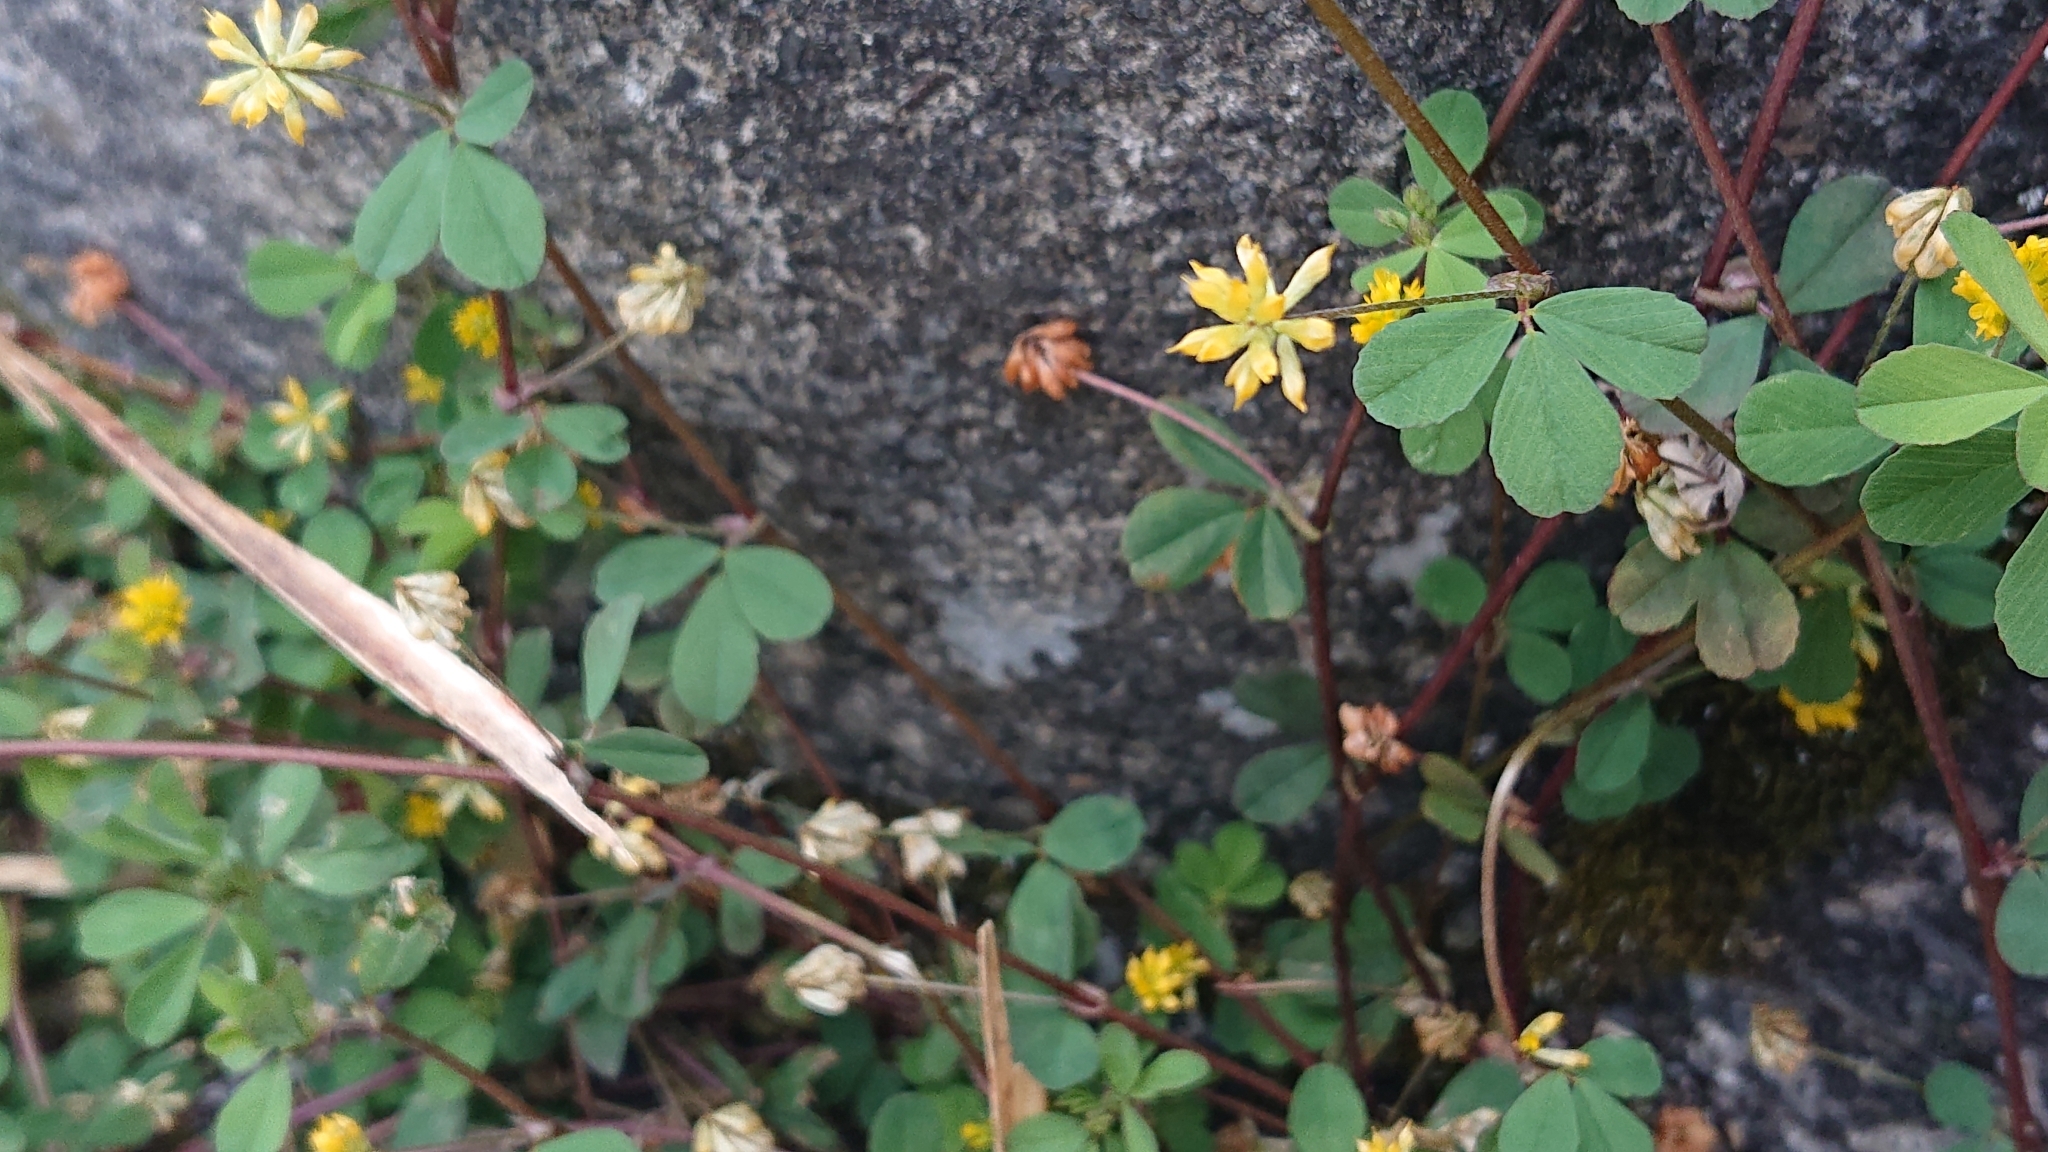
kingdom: Plantae
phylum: Tracheophyta
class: Magnoliopsida
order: Fabales
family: Fabaceae
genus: Trifolium
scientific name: Trifolium dubium
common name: Suckling clover
